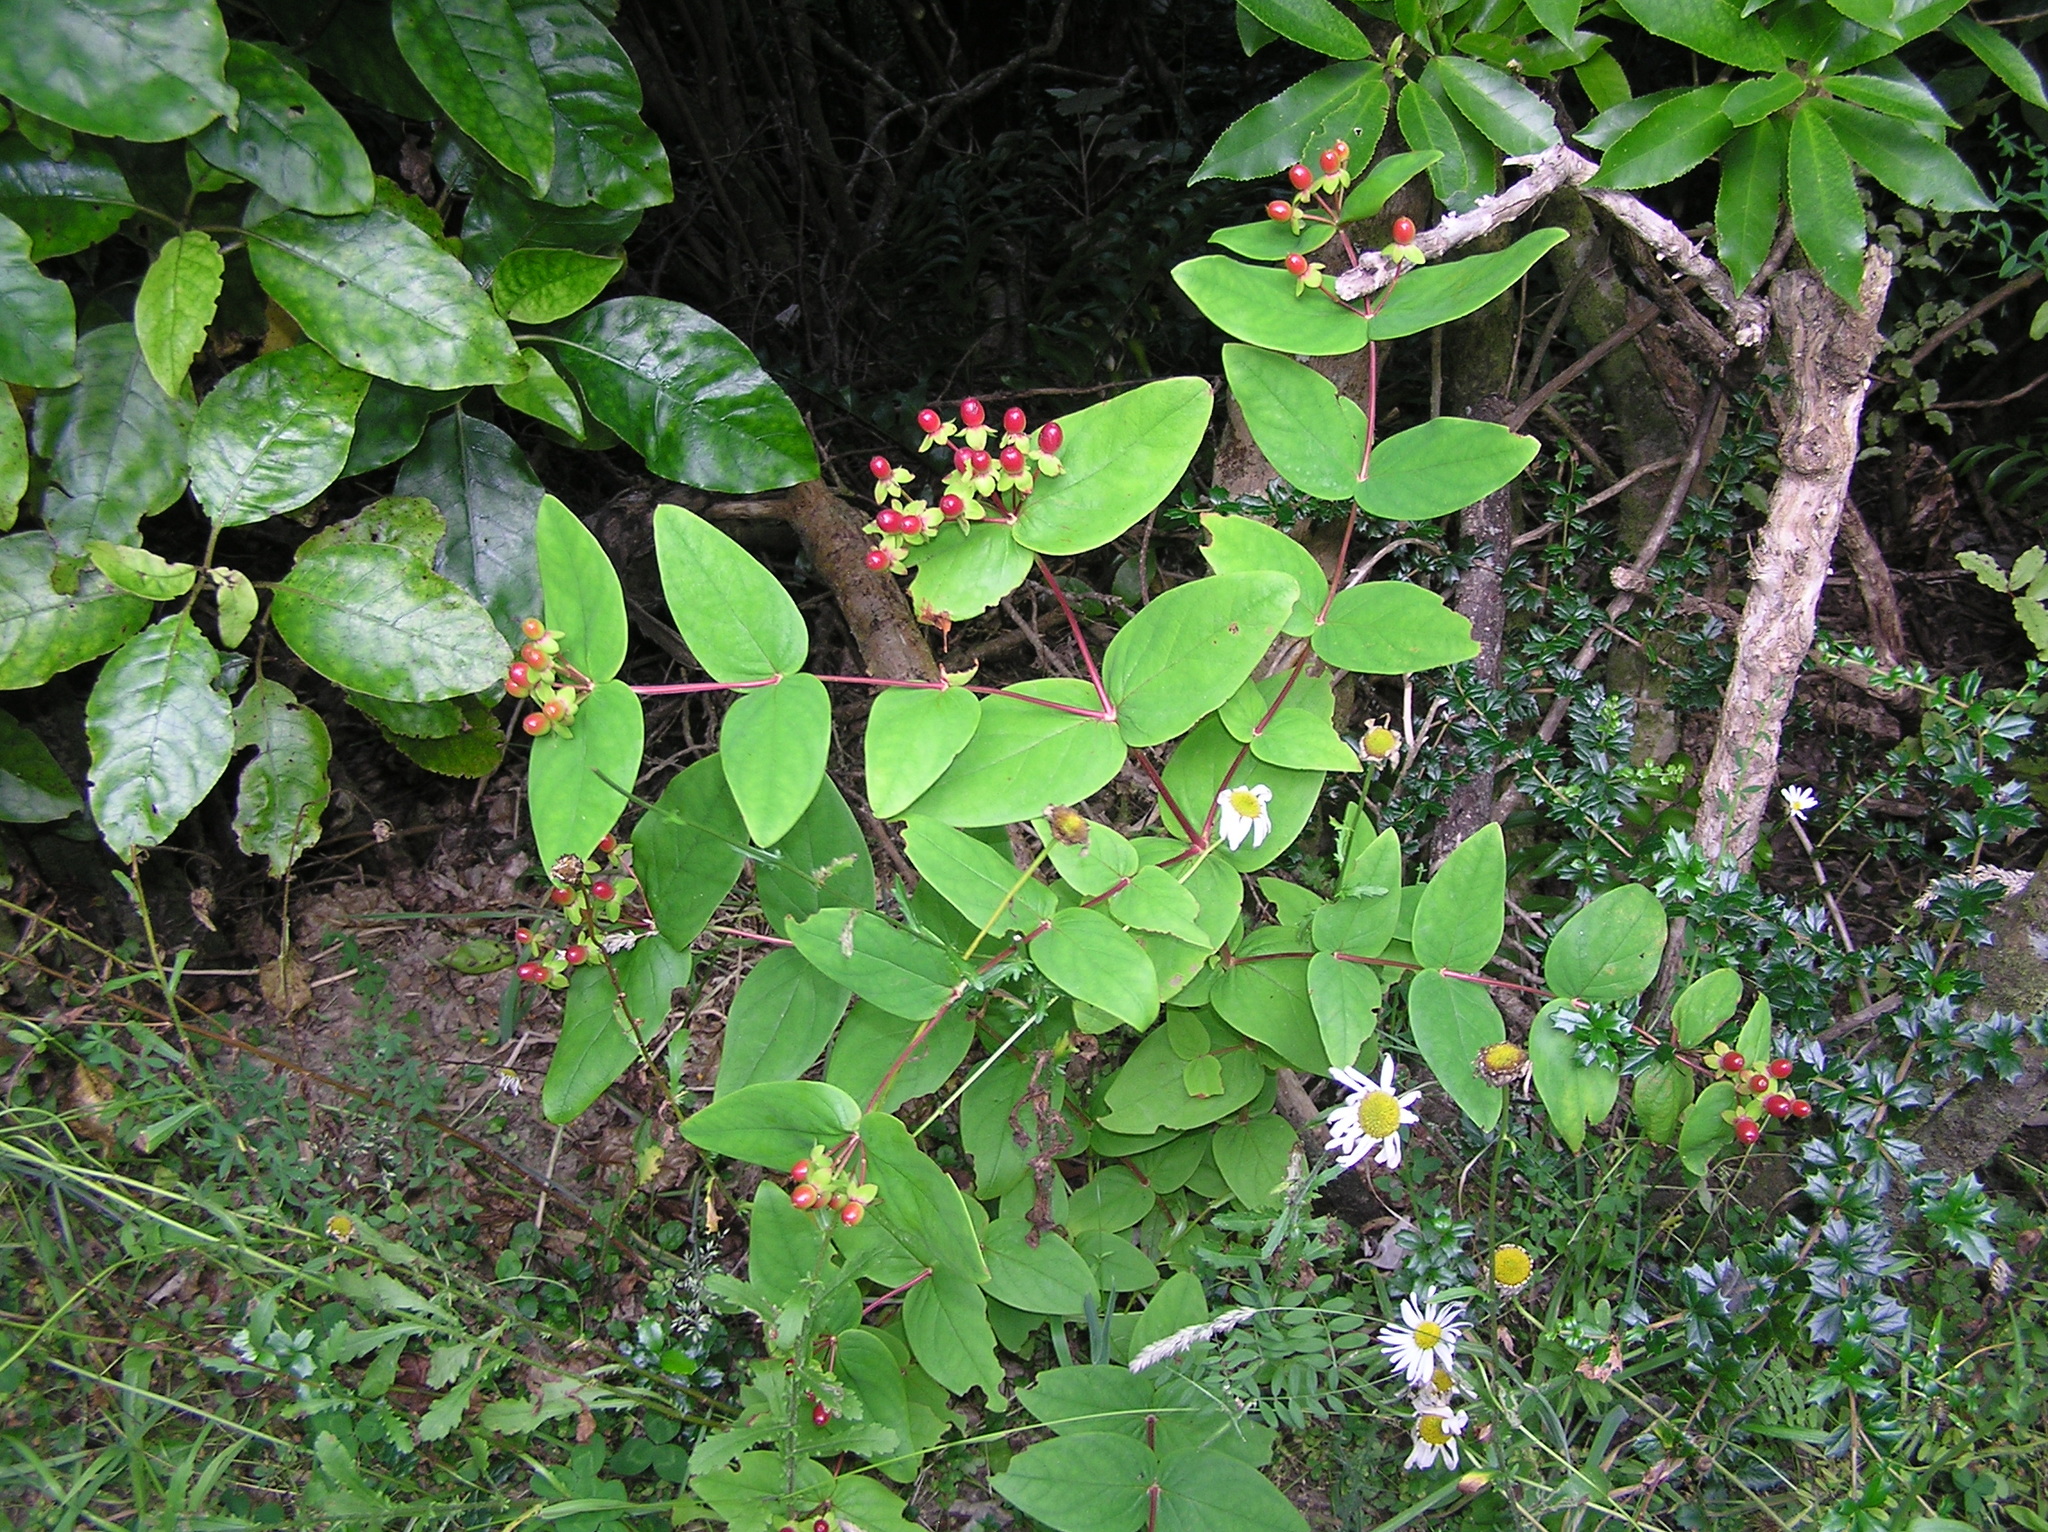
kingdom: Plantae
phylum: Tracheophyta
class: Magnoliopsida
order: Malpighiales
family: Hypericaceae
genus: Hypericum
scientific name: Hypericum androsaemum
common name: Sweet-amber
